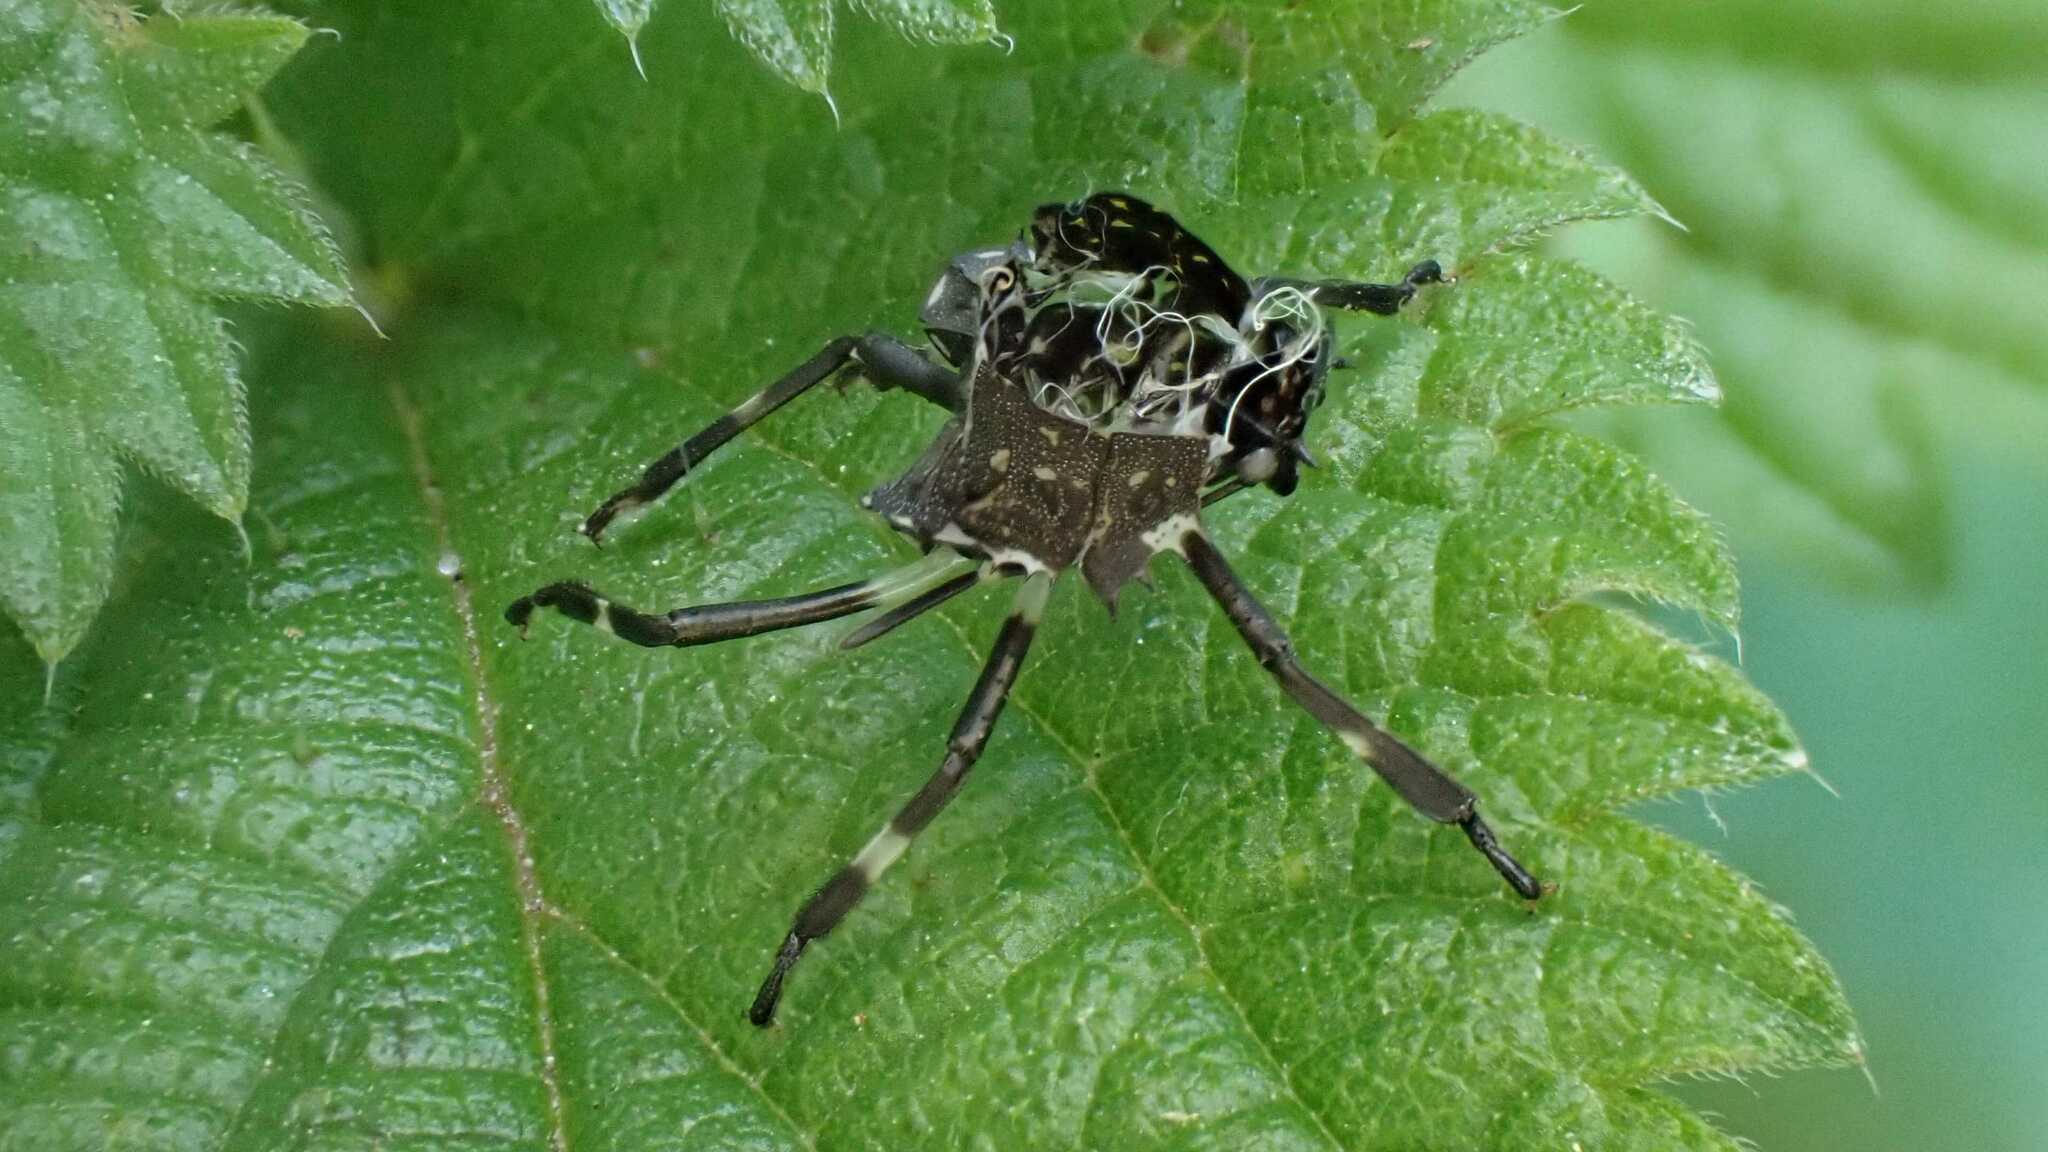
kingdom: Animalia
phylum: Arthropoda
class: Insecta
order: Hemiptera
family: Pentatomidae
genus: Halyomorpha
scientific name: Halyomorpha halys
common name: Brown marmorated stink bug
